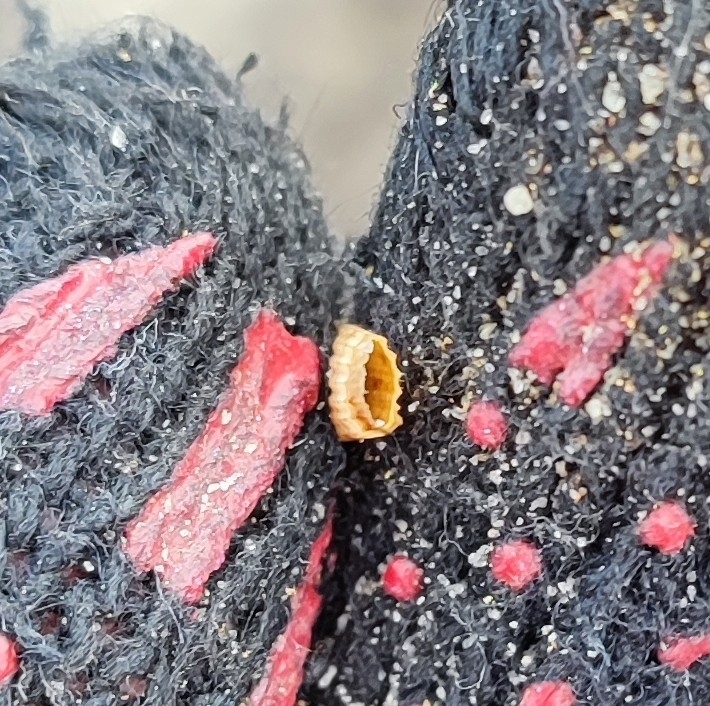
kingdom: Plantae
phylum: Tracheophyta
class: Polypodiopsida
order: Equisetales
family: Equisetaceae
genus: Equisetum
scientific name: Equisetum fluviatile
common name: Water horsetail
